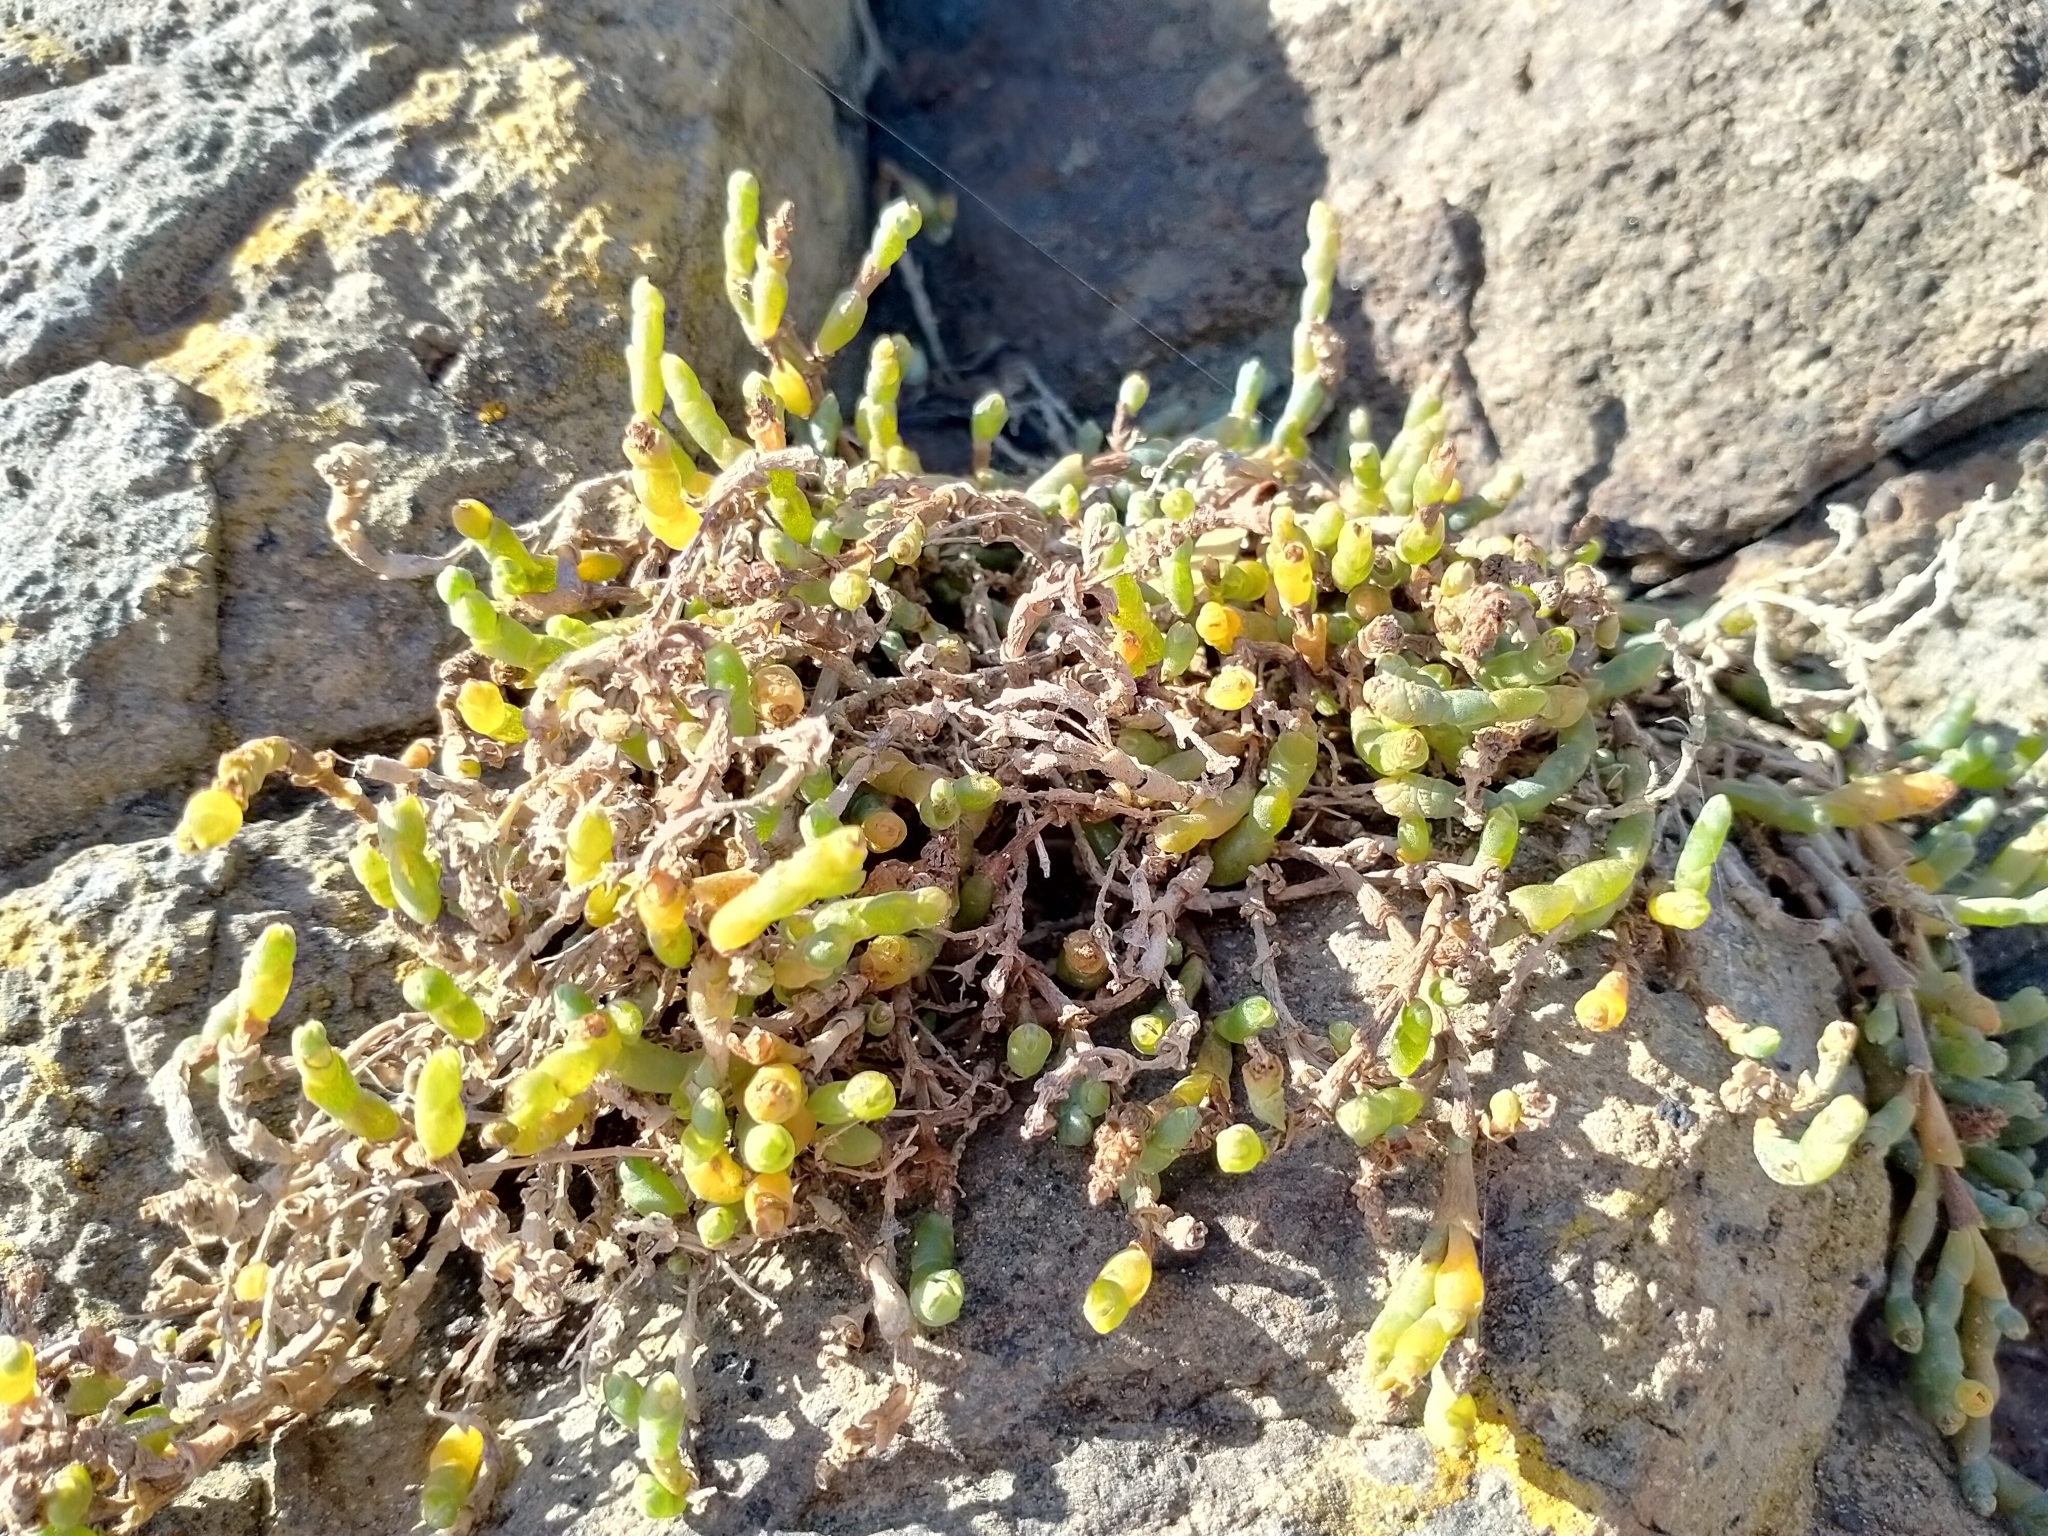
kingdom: Plantae
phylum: Tracheophyta
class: Magnoliopsida
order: Caryophyllales
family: Amaranthaceae
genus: Salicornia
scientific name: Salicornia quinqueflora
